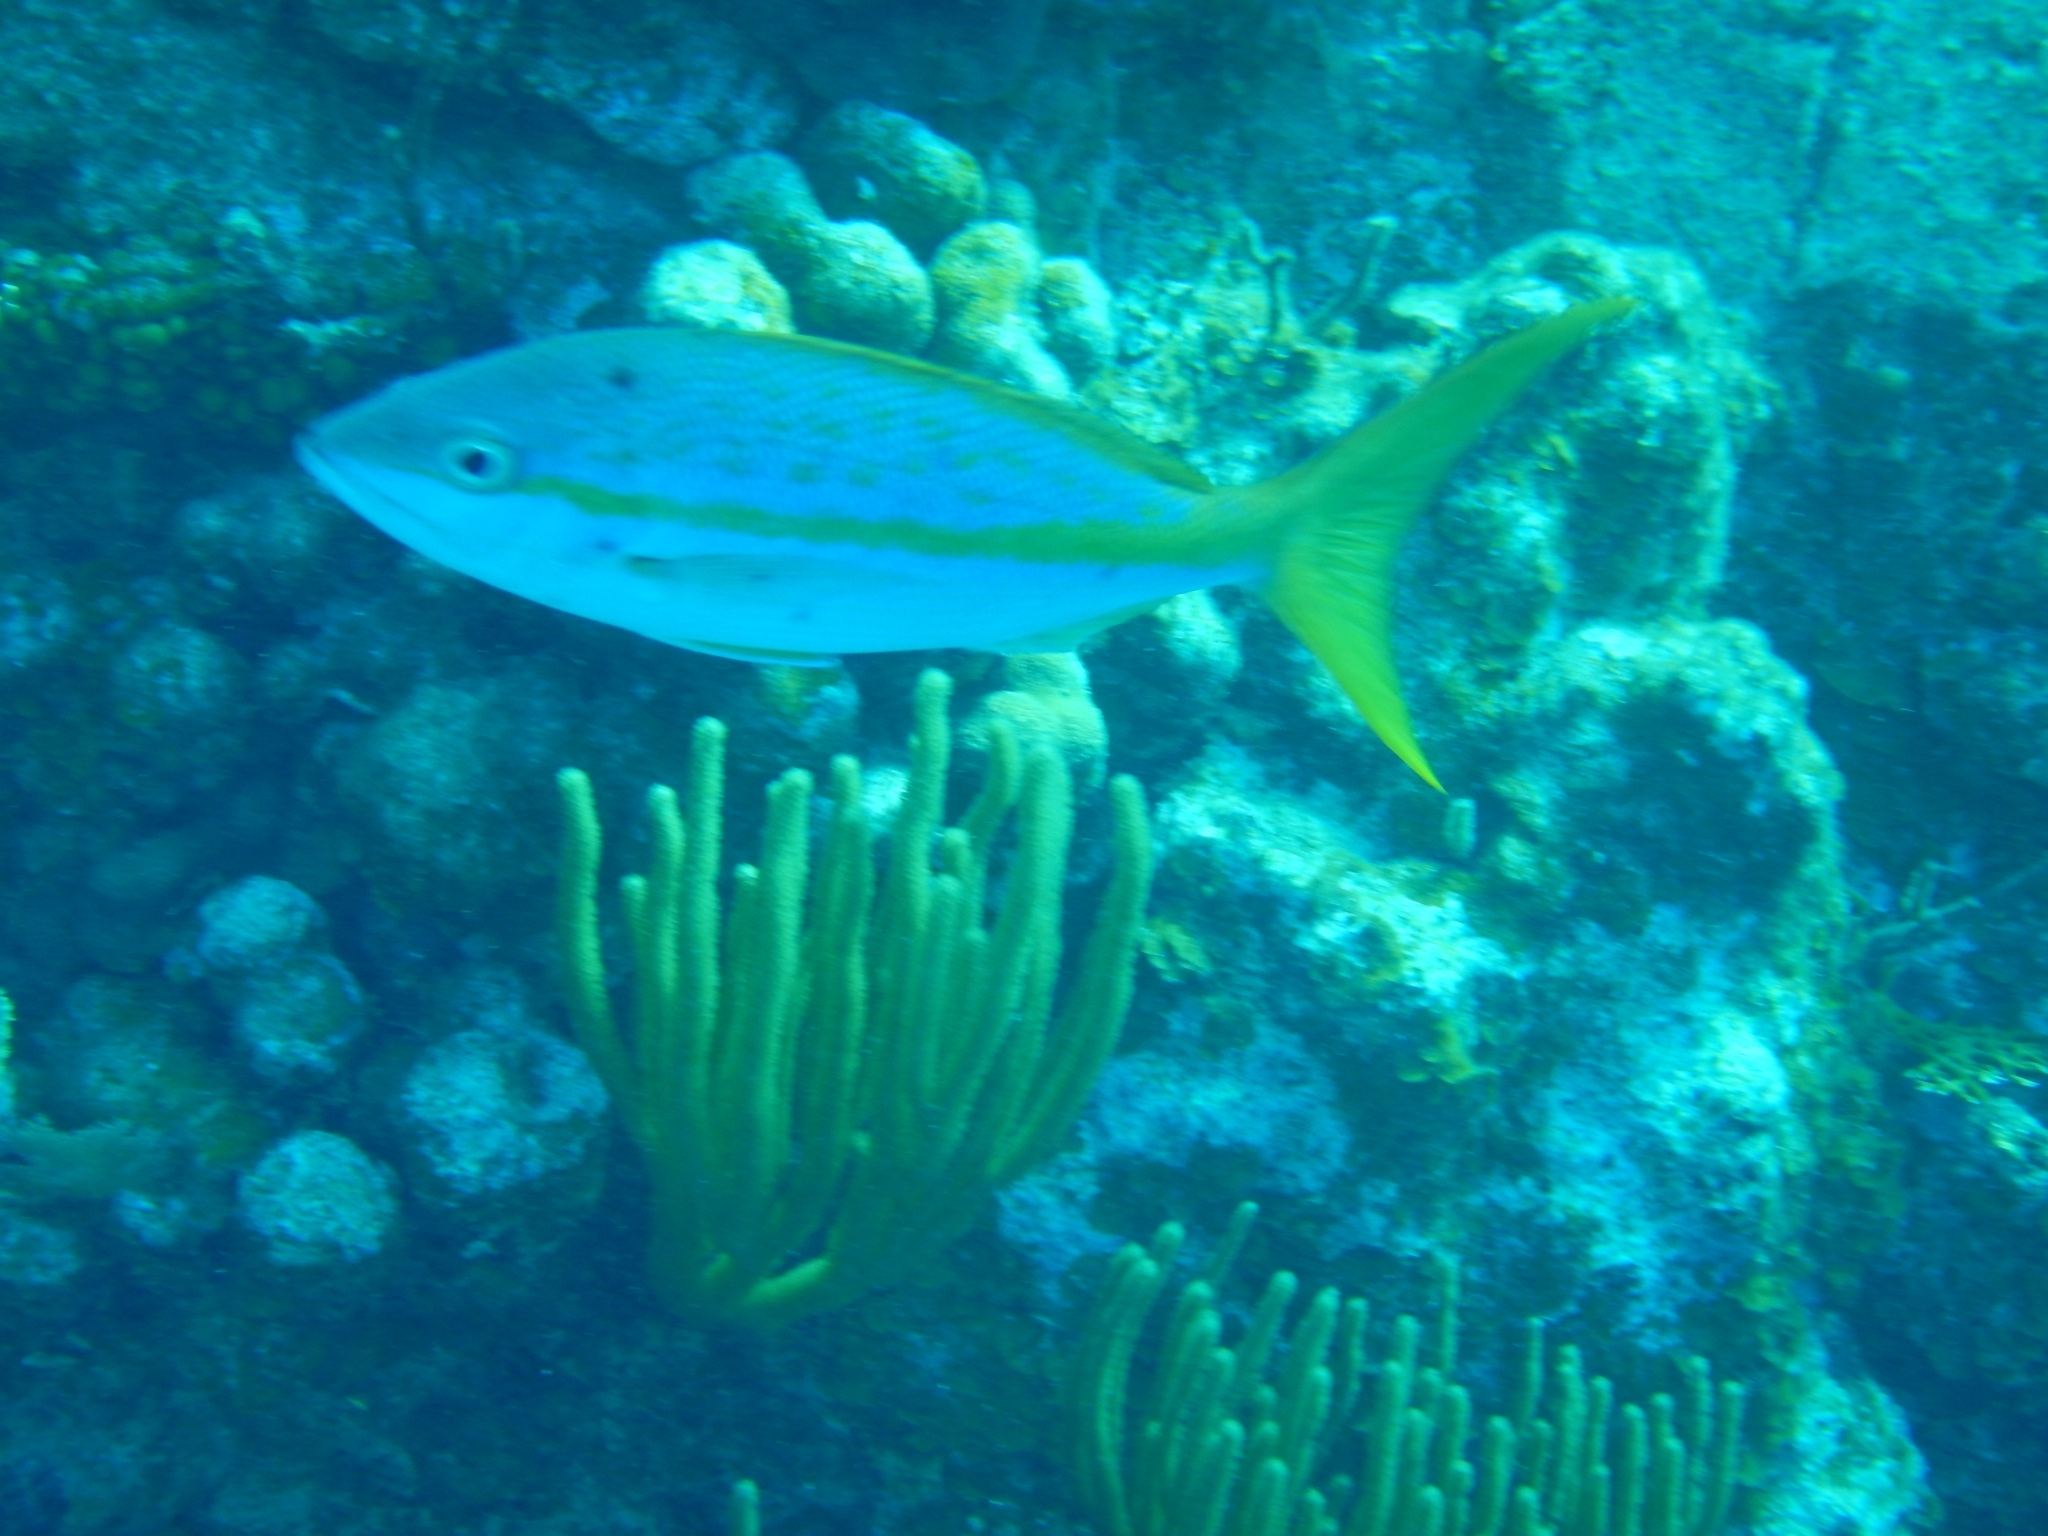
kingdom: Animalia
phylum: Chordata
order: Perciformes
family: Lutjanidae
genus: Ocyurus
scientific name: Ocyurus chrysurus
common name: Yellowtail snapper
